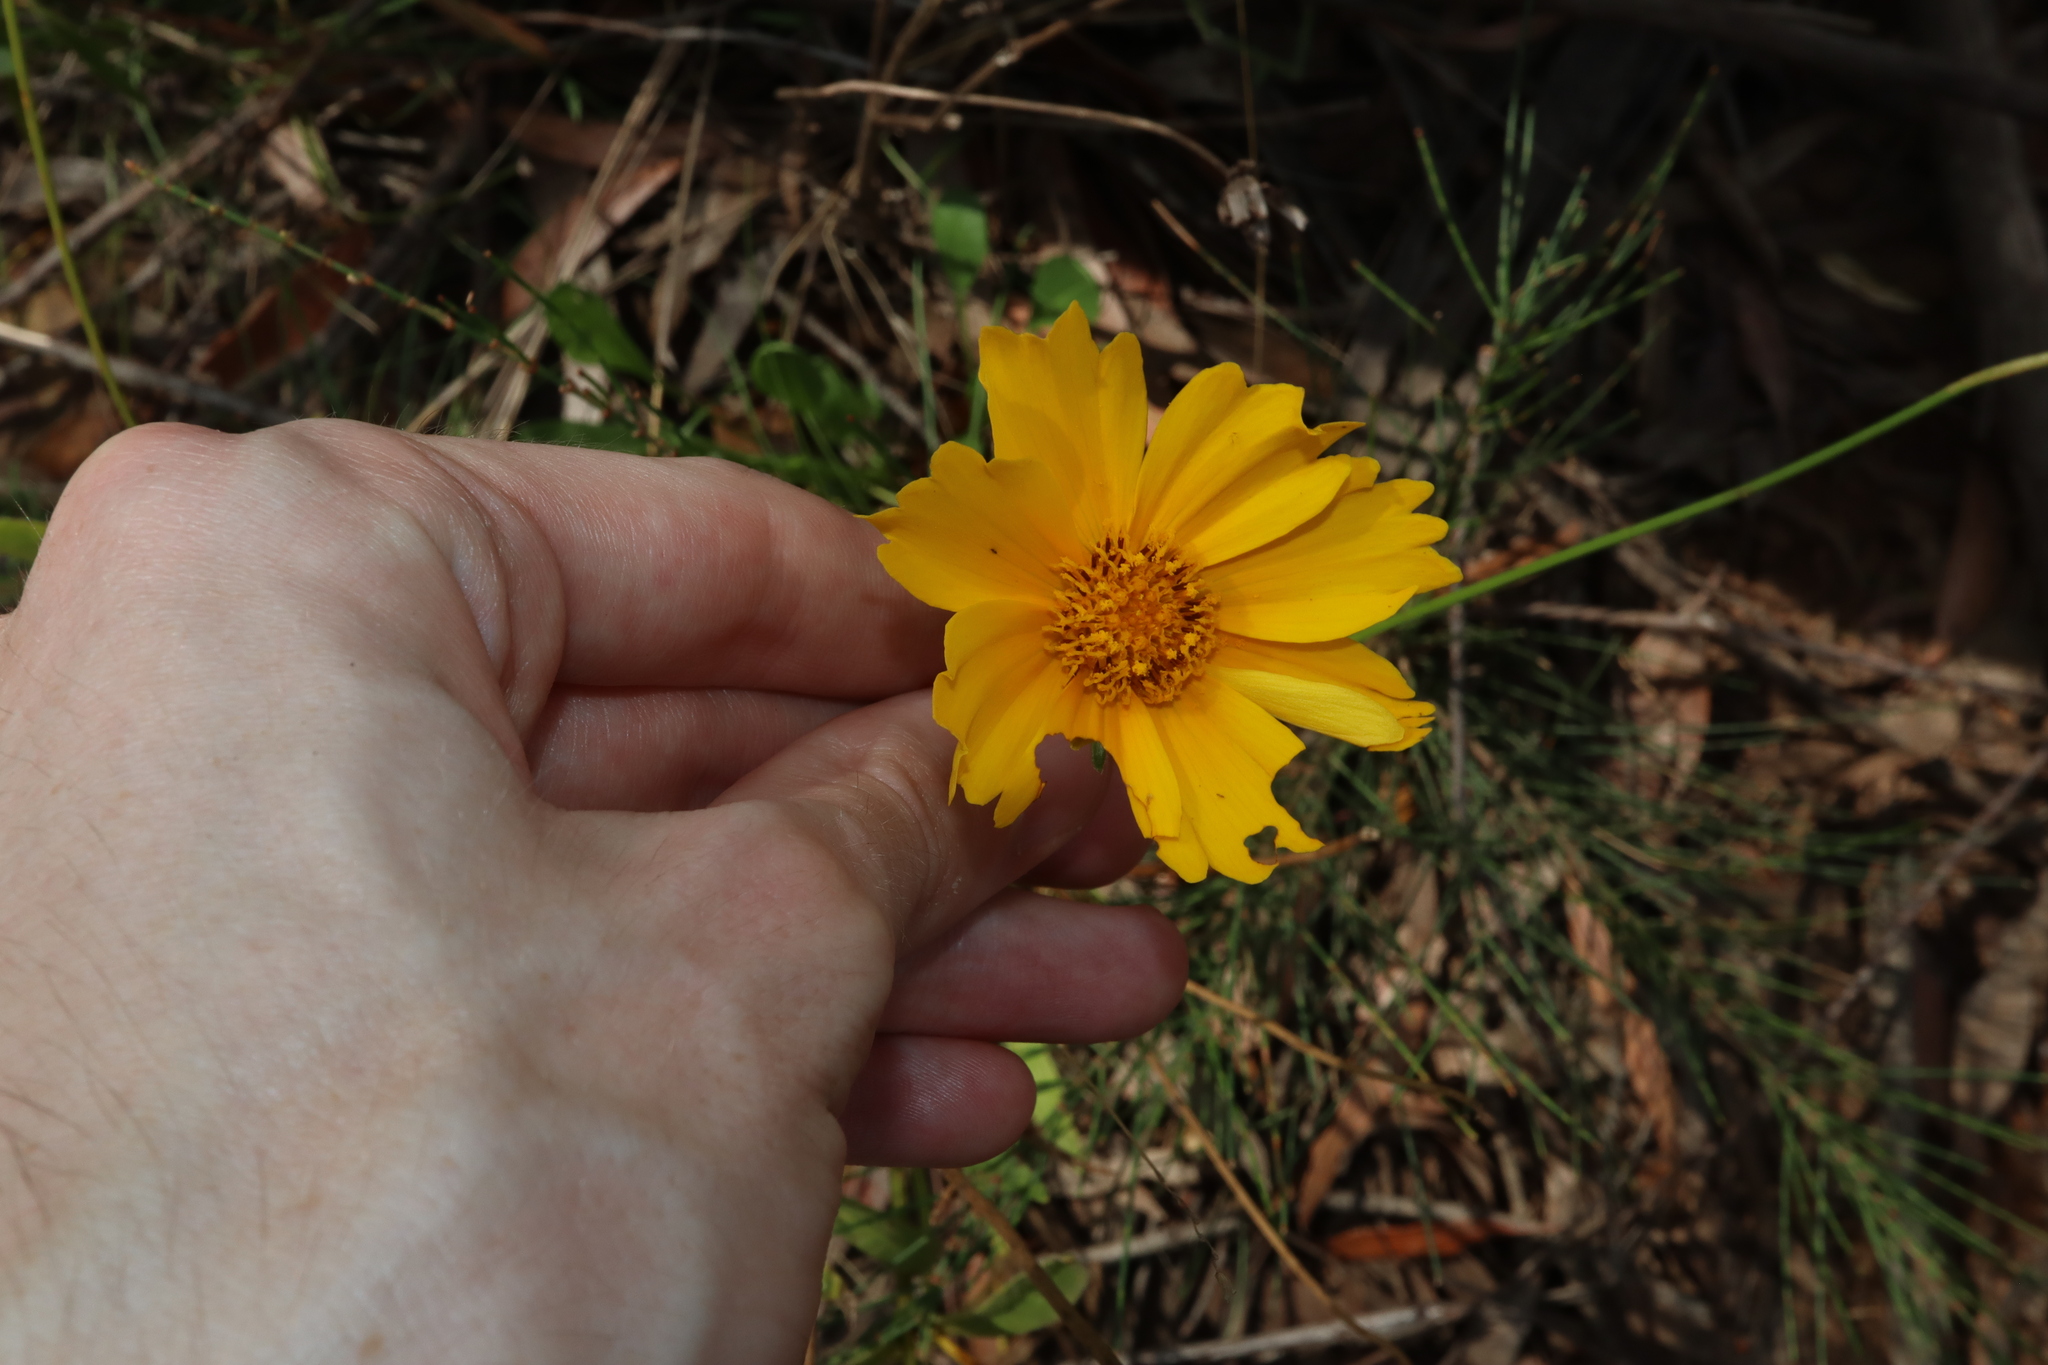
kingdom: Plantae
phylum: Tracheophyta
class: Magnoliopsida
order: Asterales
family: Asteraceae
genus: Coreopsis
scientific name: Coreopsis lanceolata
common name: Garden coreopsis
